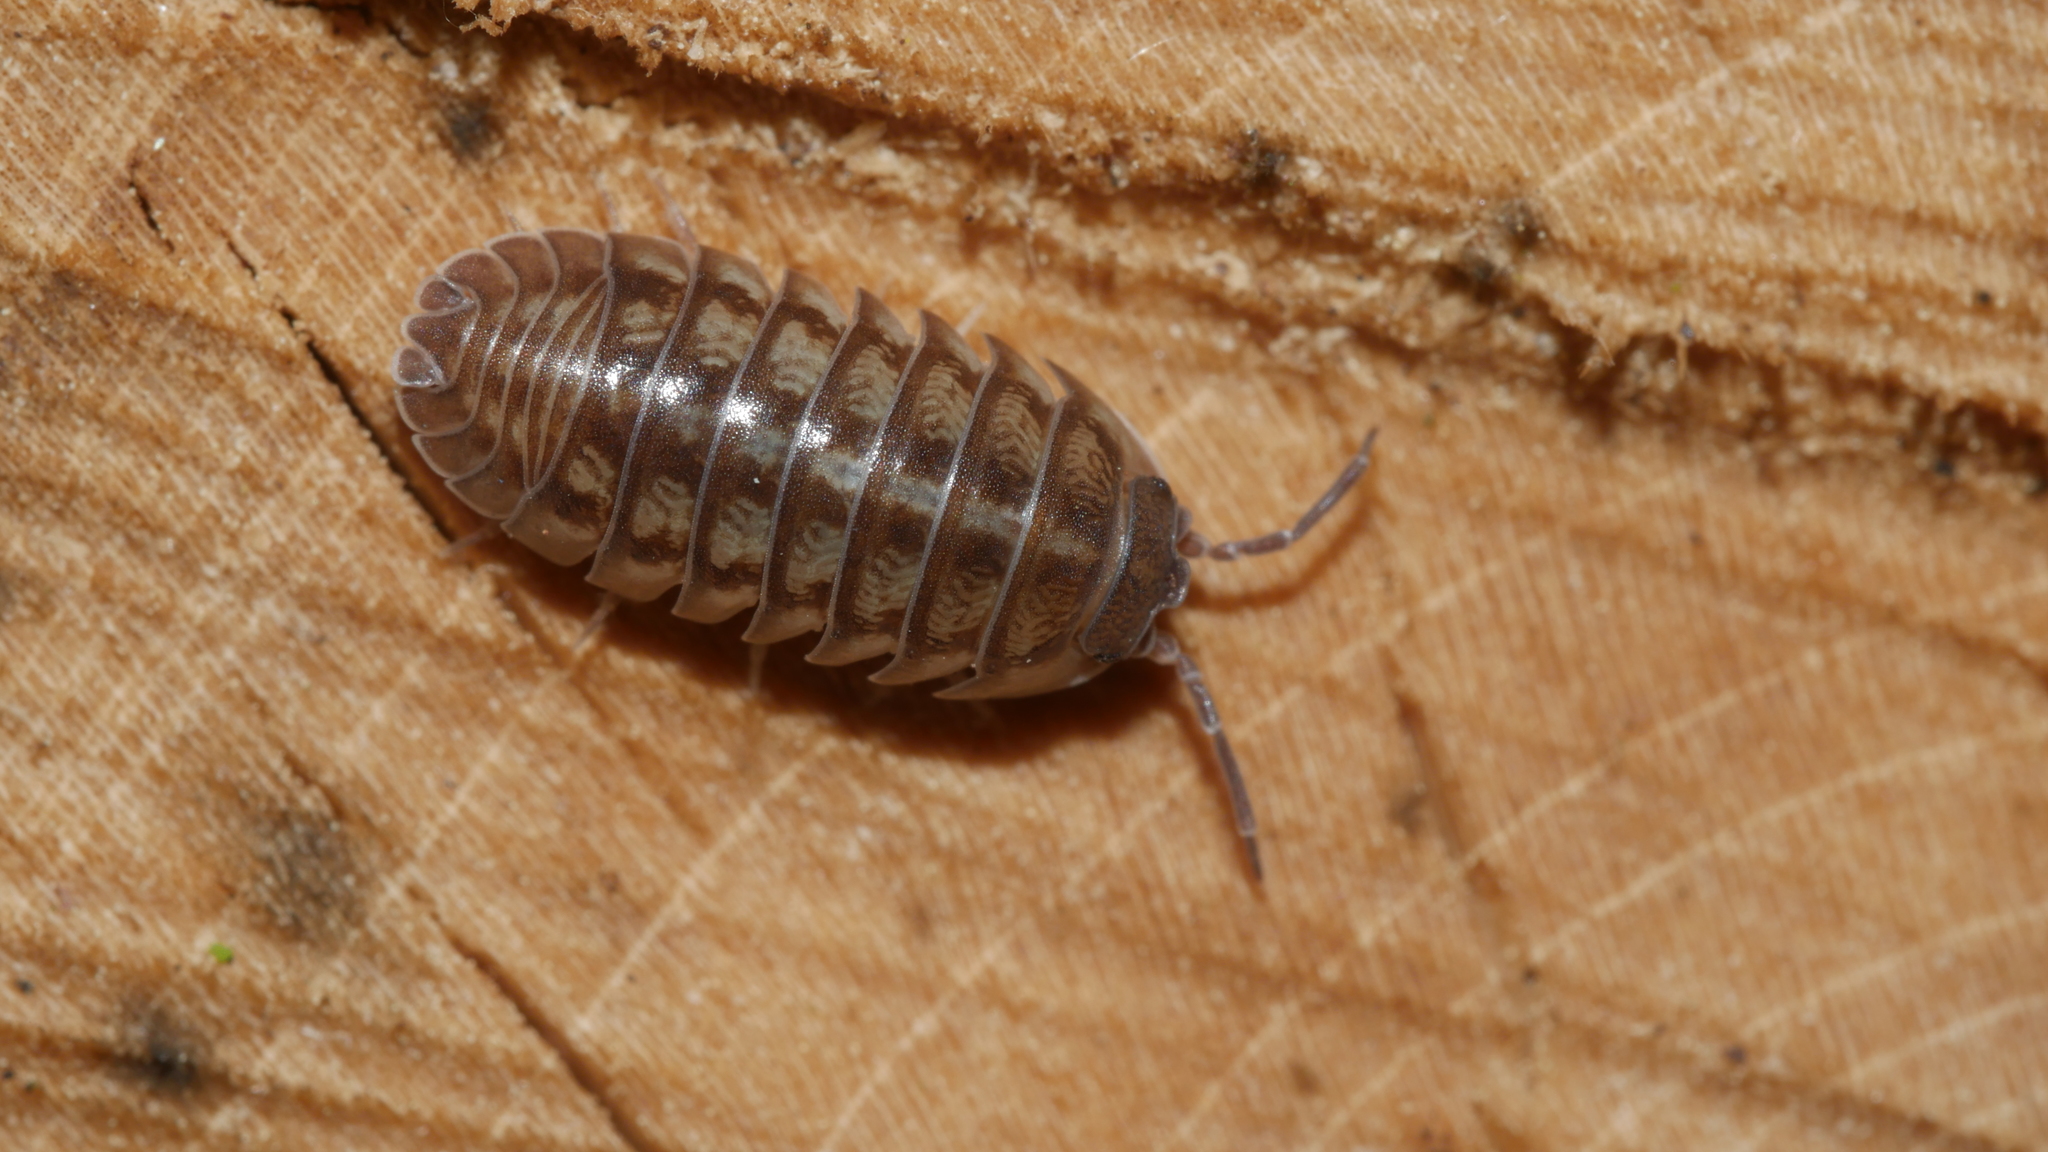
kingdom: Animalia
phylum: Arthropoda
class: Malacostraca
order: Isopoda
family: Armadillidiidae
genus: Armadillidium
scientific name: Armadillidium nasatum
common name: Isopod
